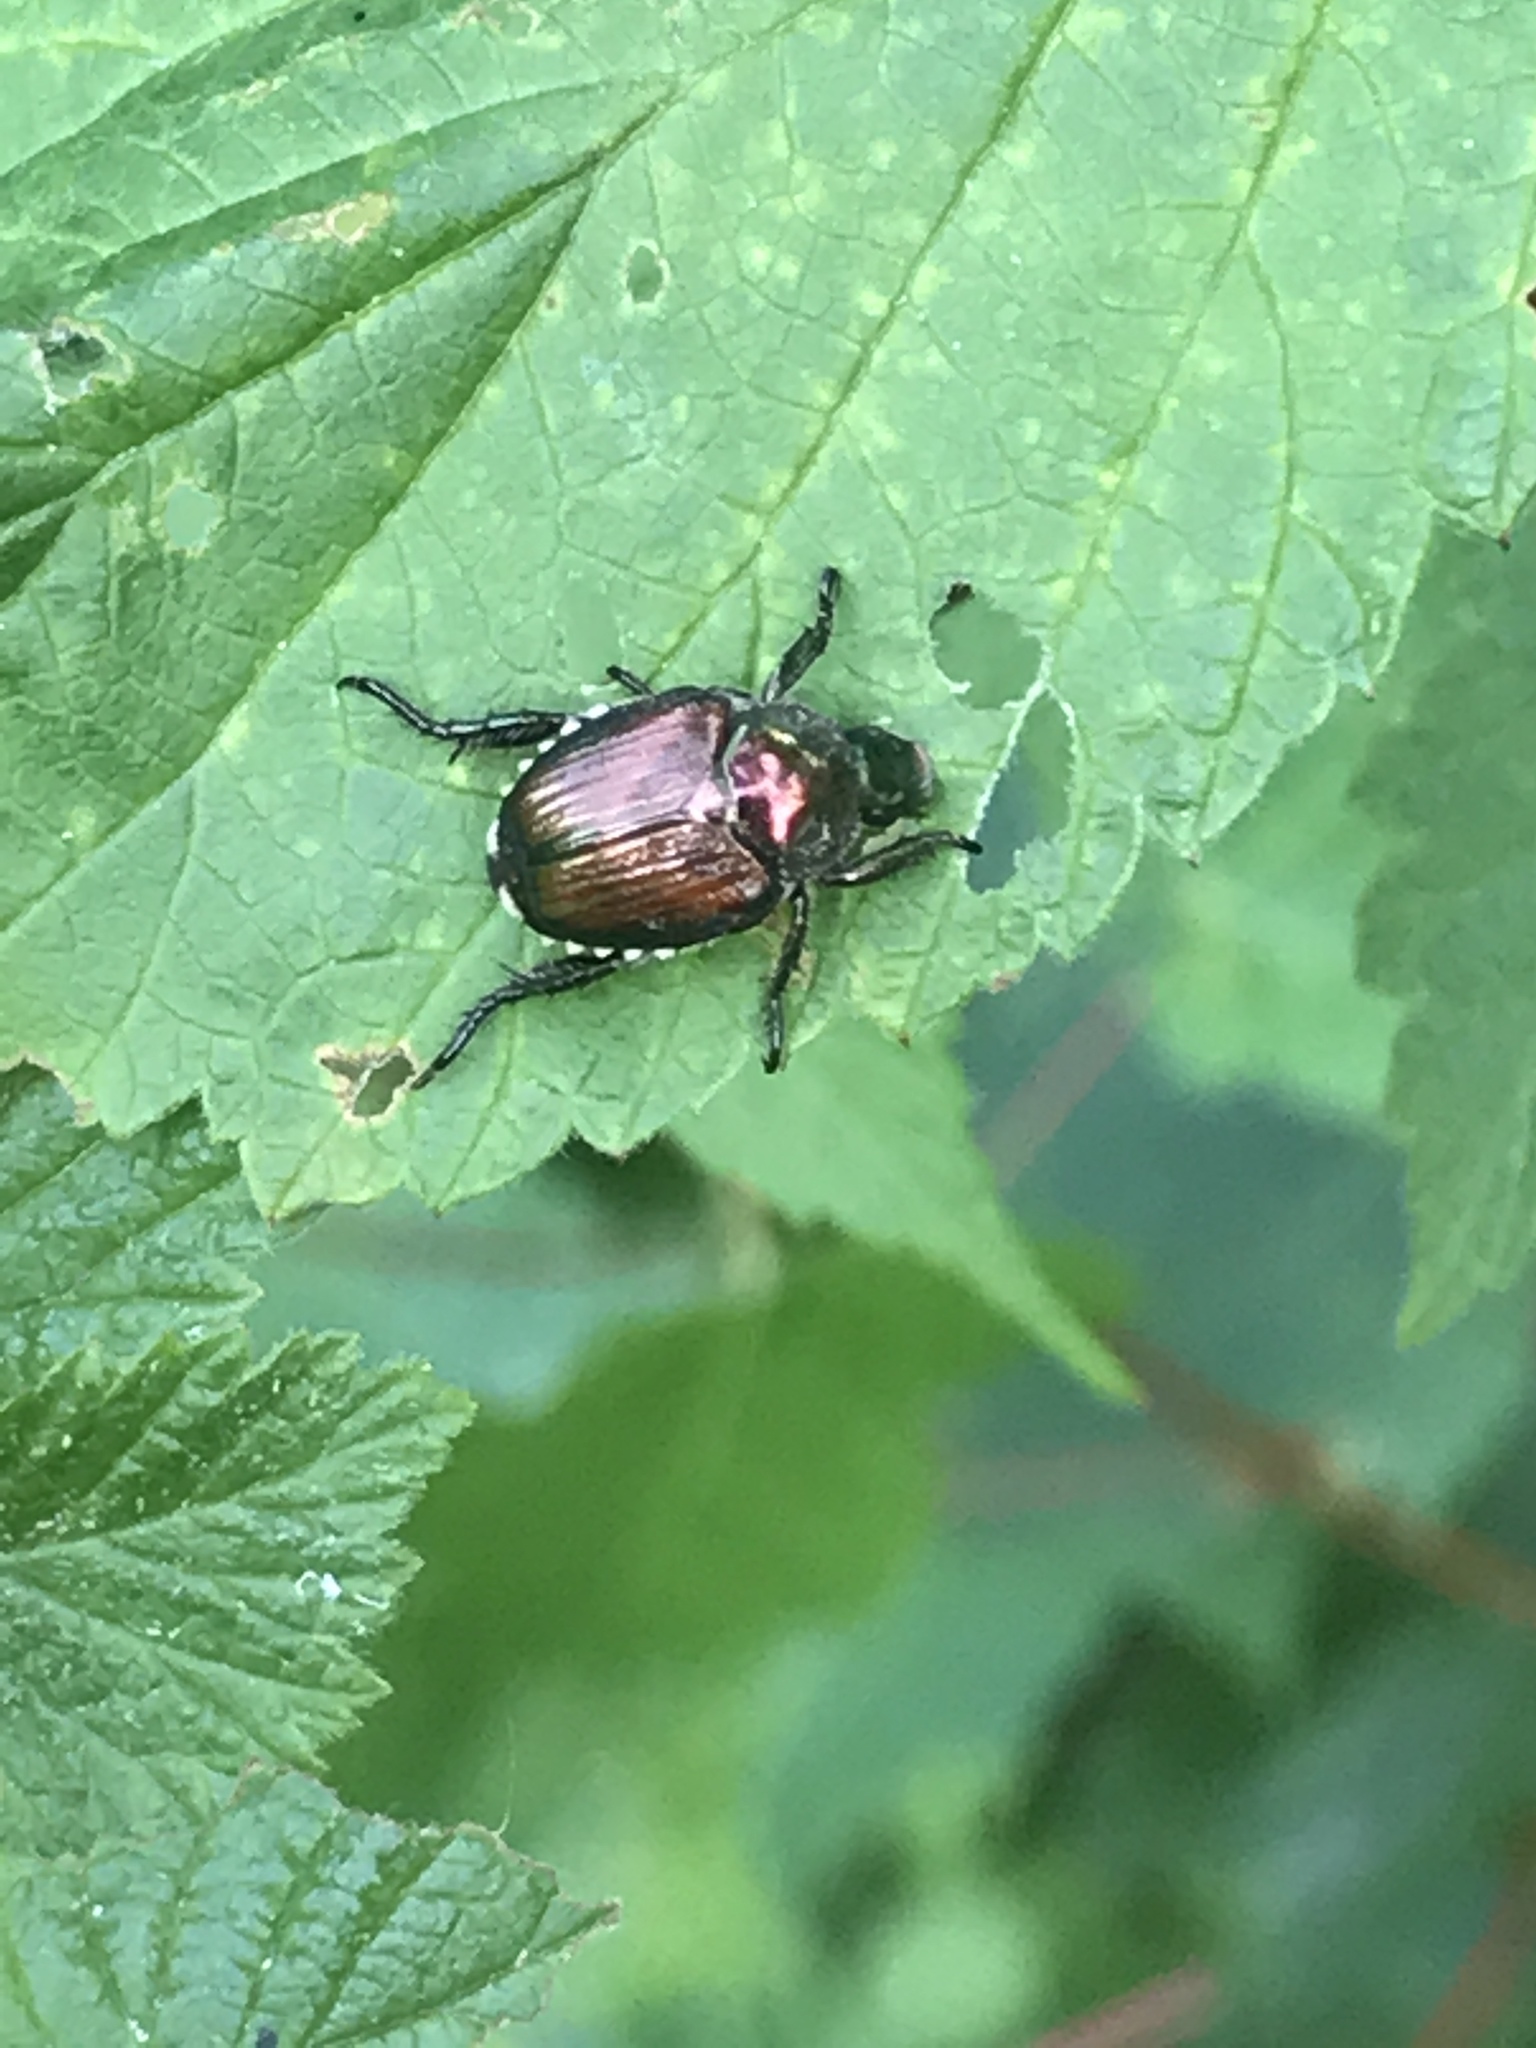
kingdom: Animalia
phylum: Arthropoda
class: Insecta
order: Coleoptera
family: Scarabaeidae
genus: Popillia
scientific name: Popillia japonica
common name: Japanese beetle
